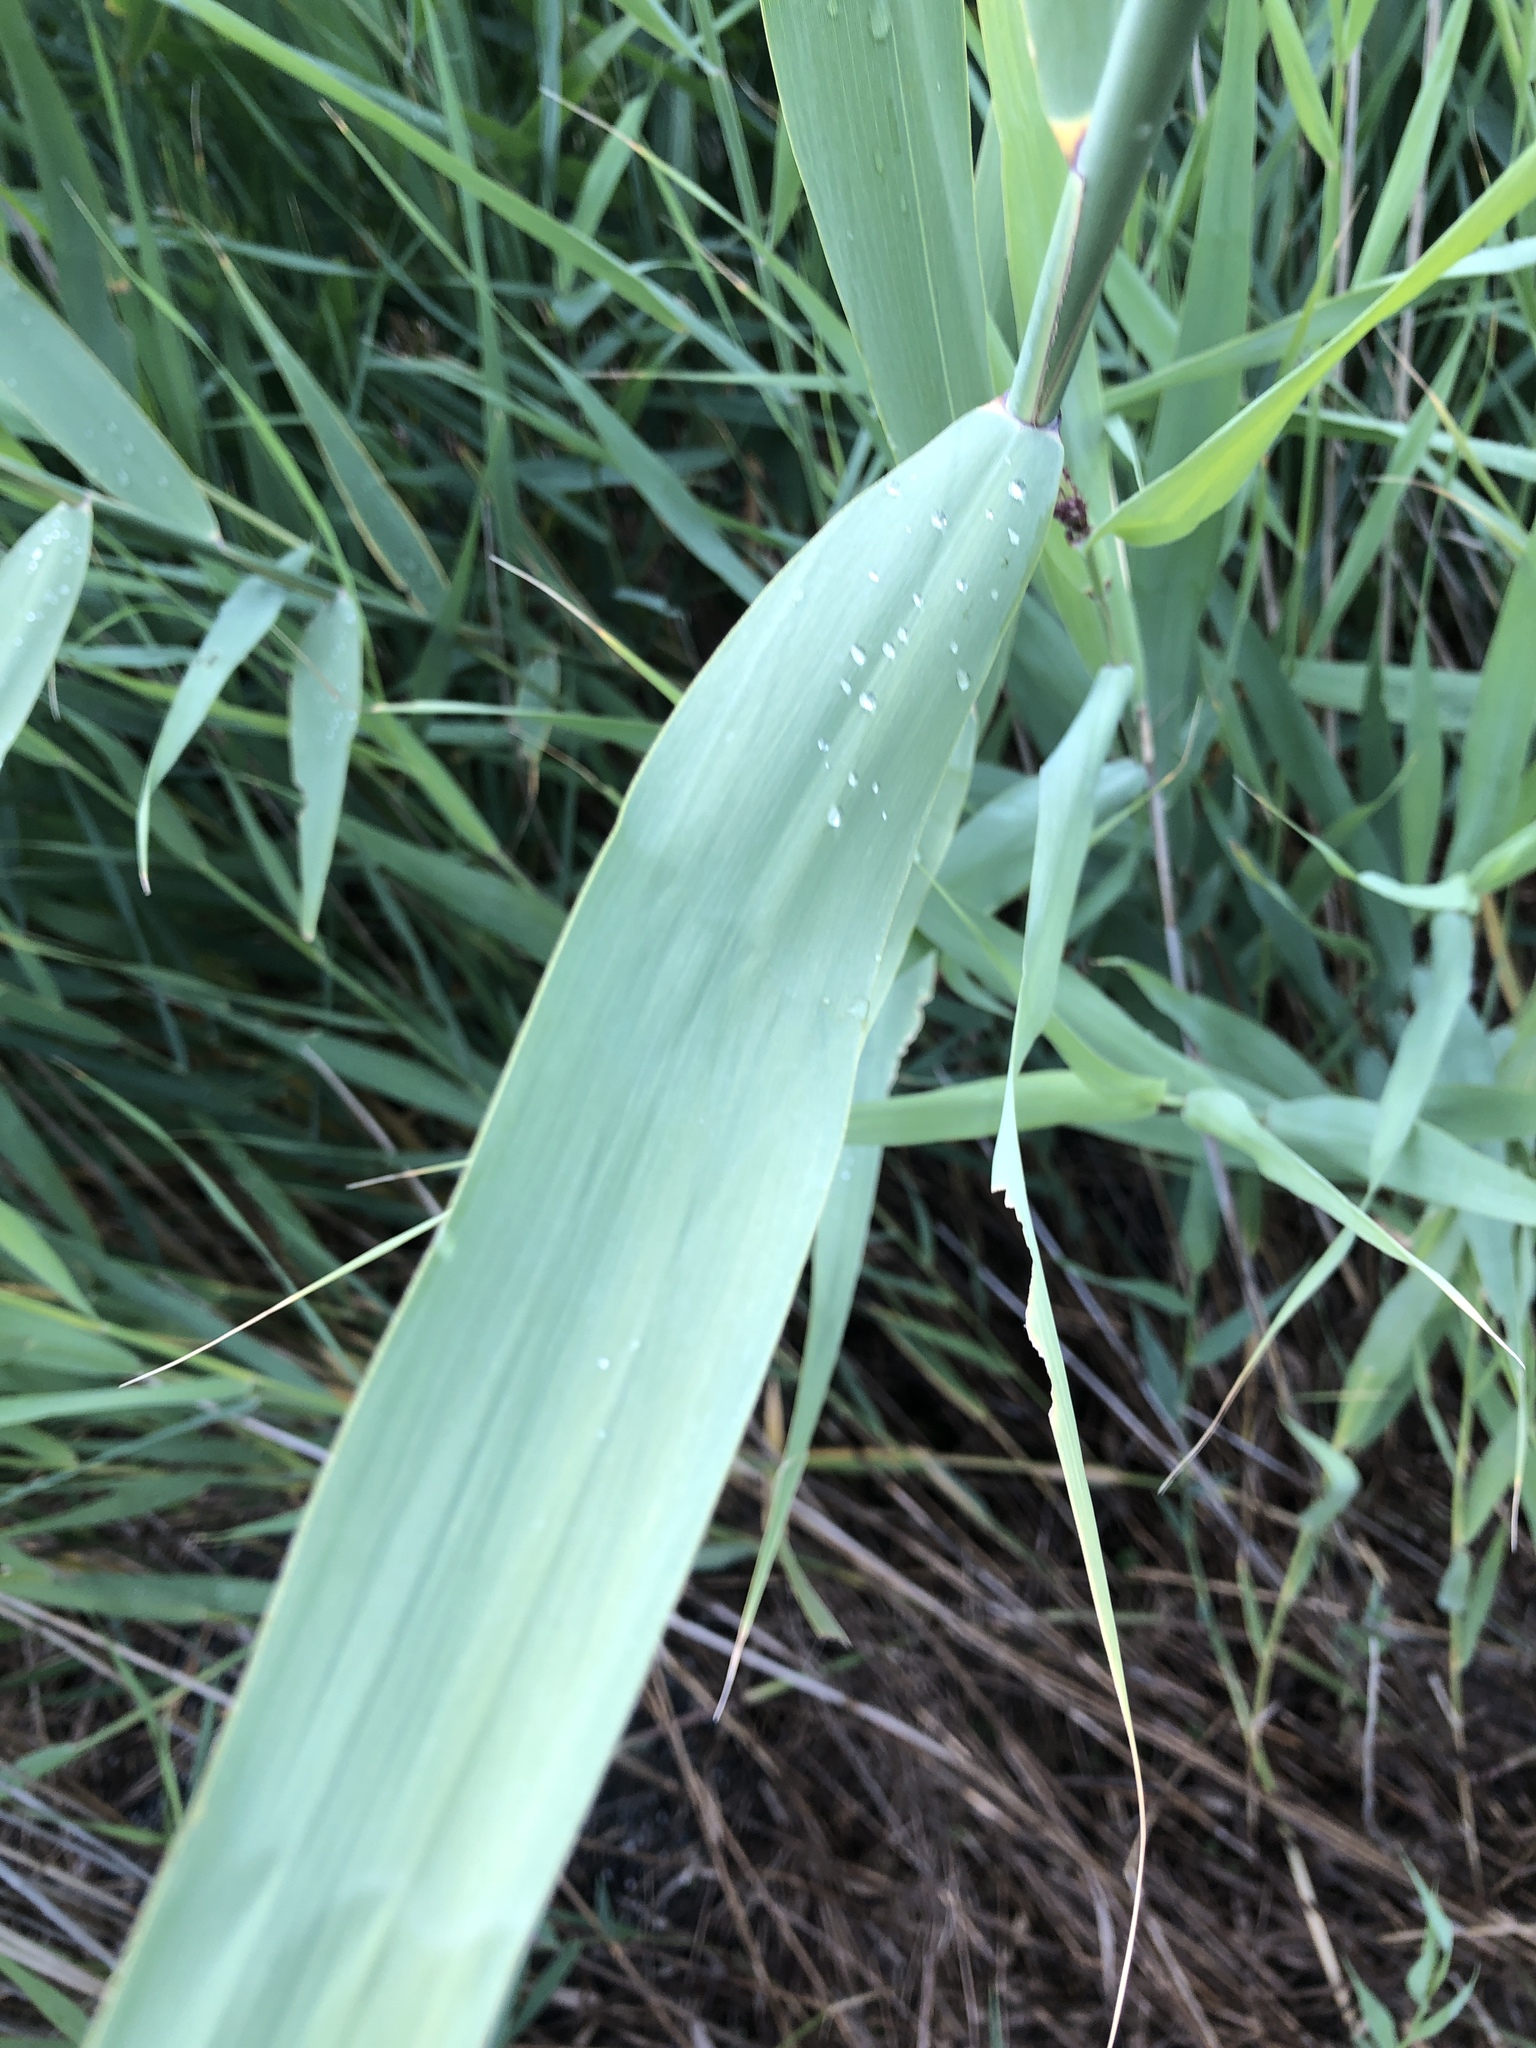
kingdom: Plantae
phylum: Tracheophyta
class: Liliopsida
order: Poales
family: Poaceae
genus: Phragmites
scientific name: Phragmites australis
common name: Common reed
